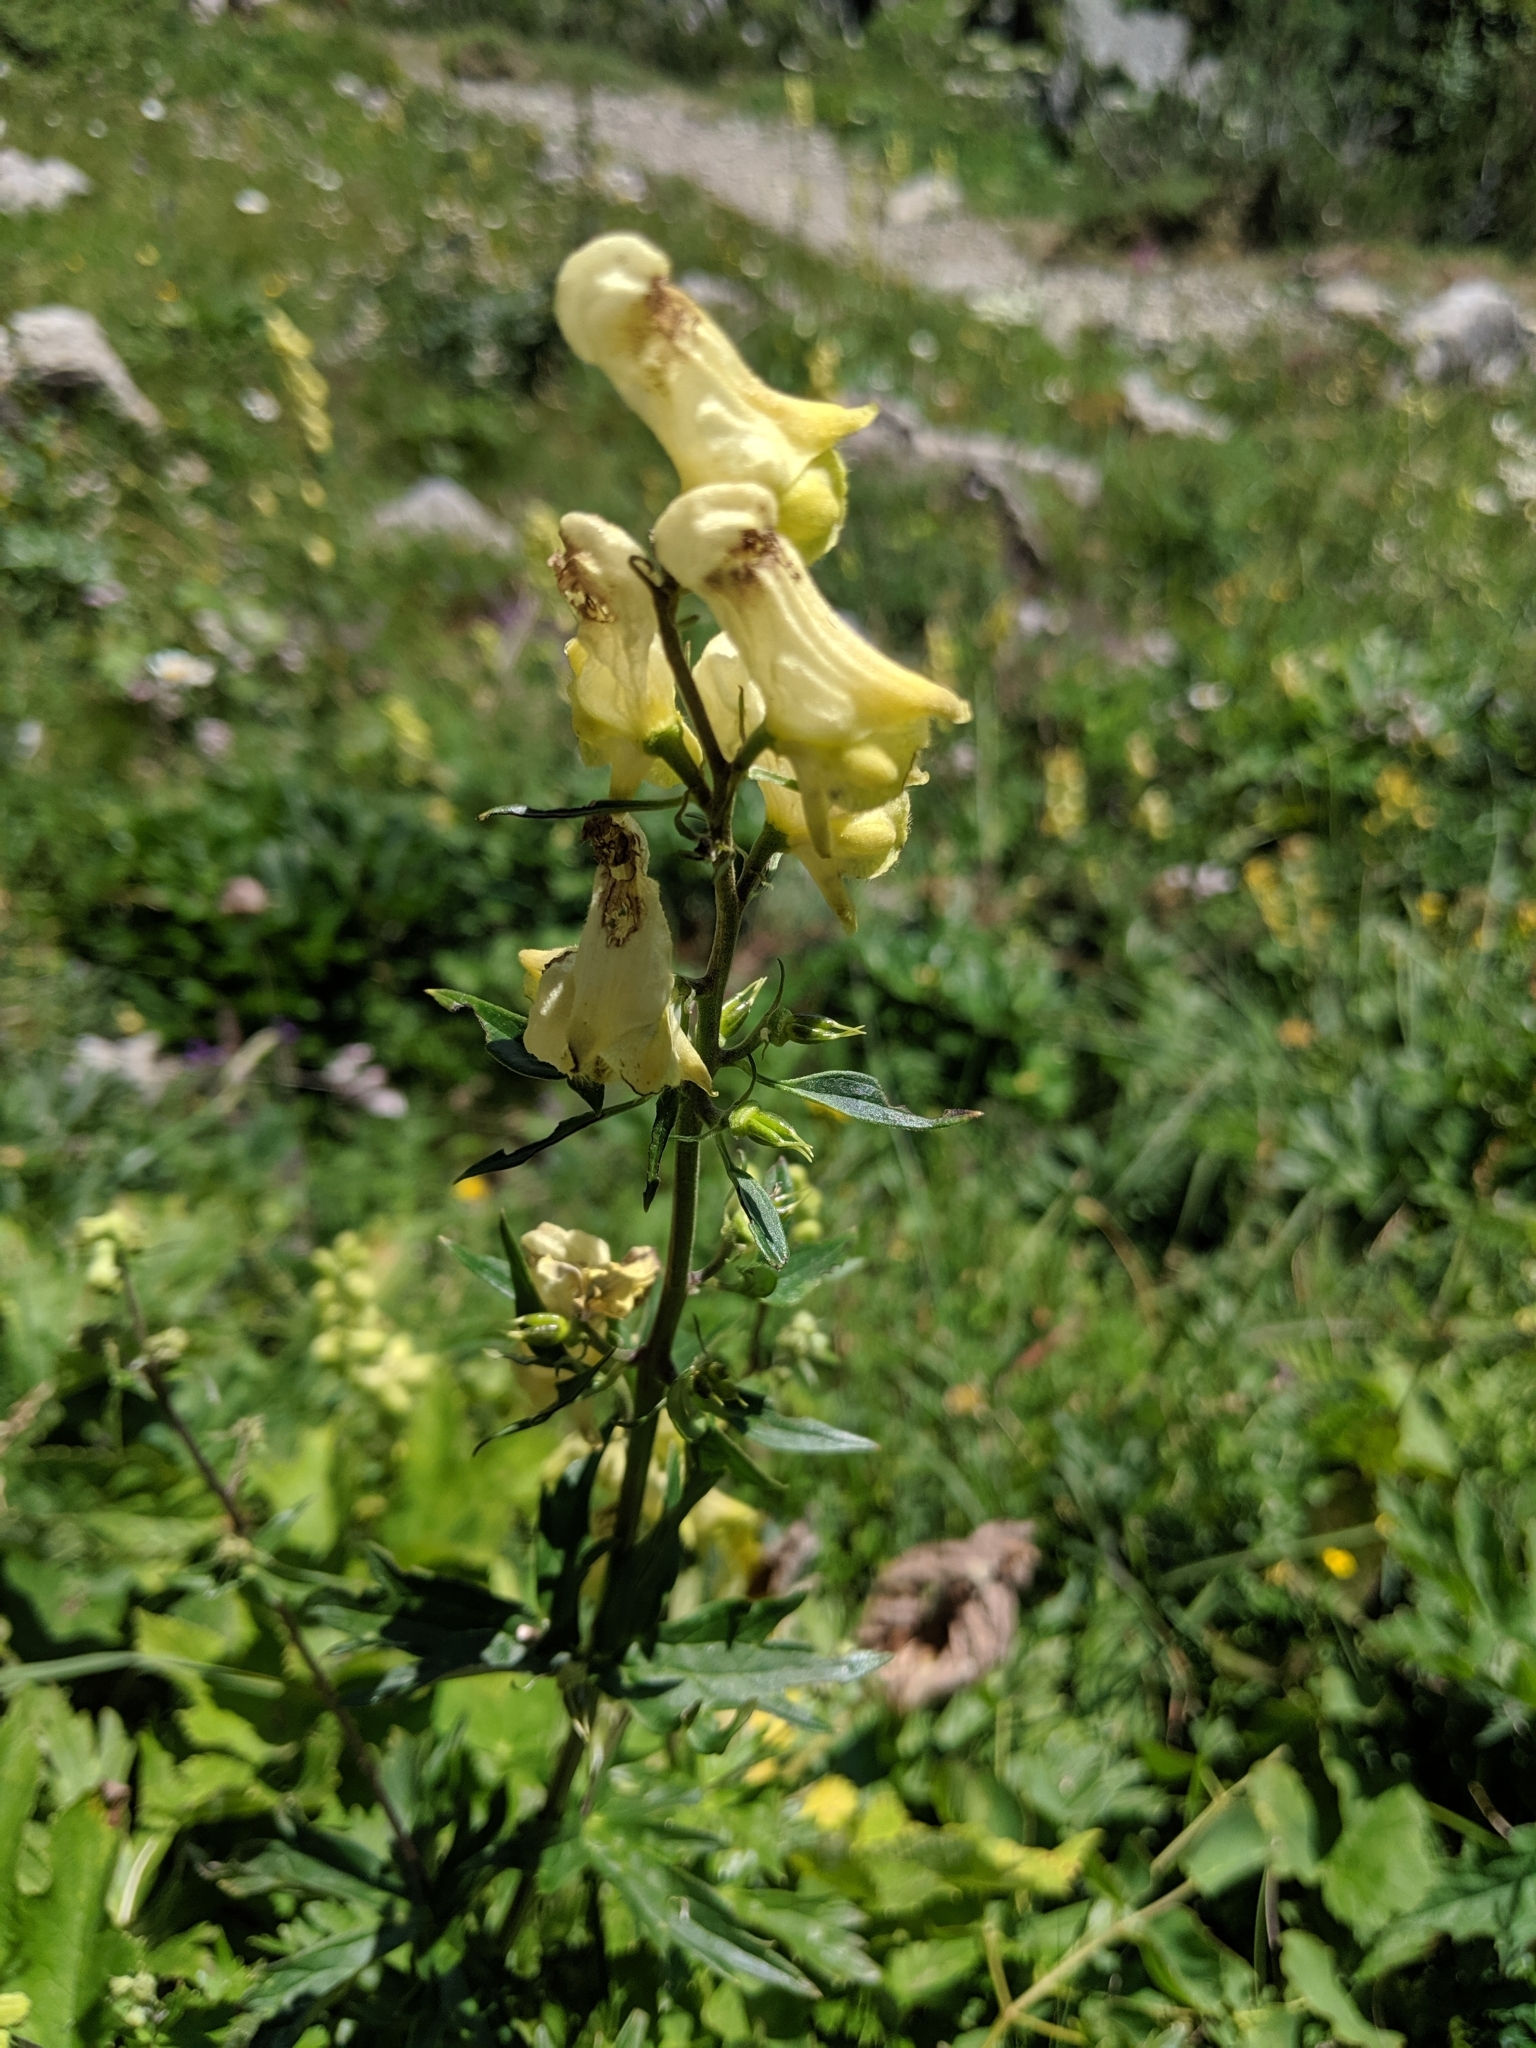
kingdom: Plantae
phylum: Tracheophyta
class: Magnoliopsida
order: Ranunculales
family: Ranunculaceae
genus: Aconitum
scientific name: Aconitum lycoctonum
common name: Wolf's-bane
